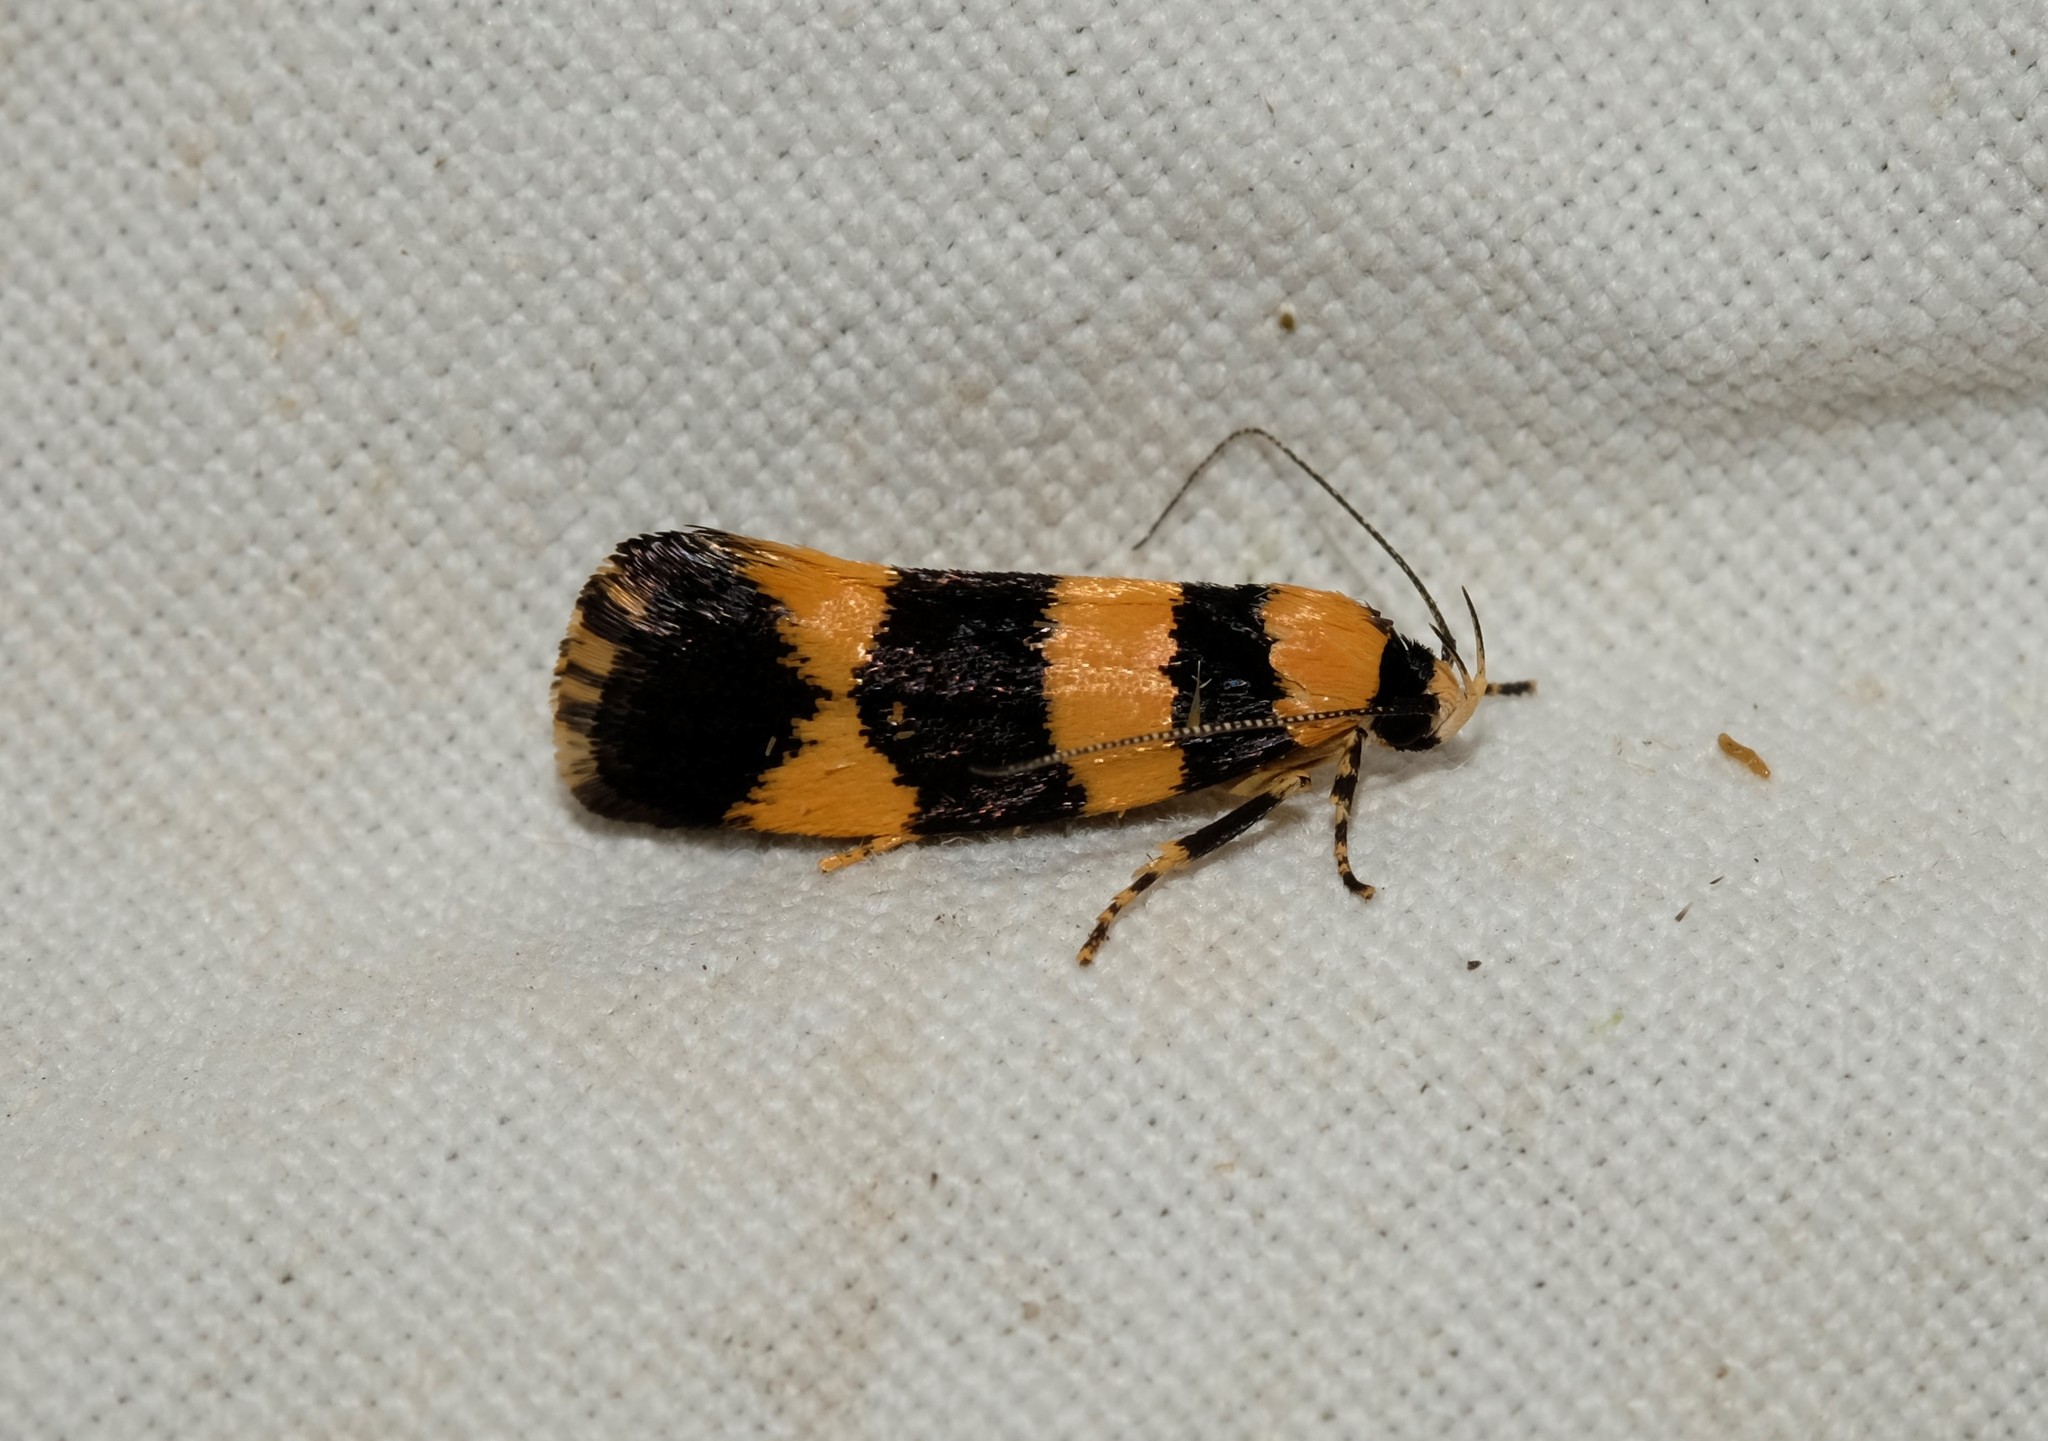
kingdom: Animalia
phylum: Arthropoda
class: Insecta
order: Lepidoptera
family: Xyloryctidae
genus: Lichenaula
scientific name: Lichenaula arisema
